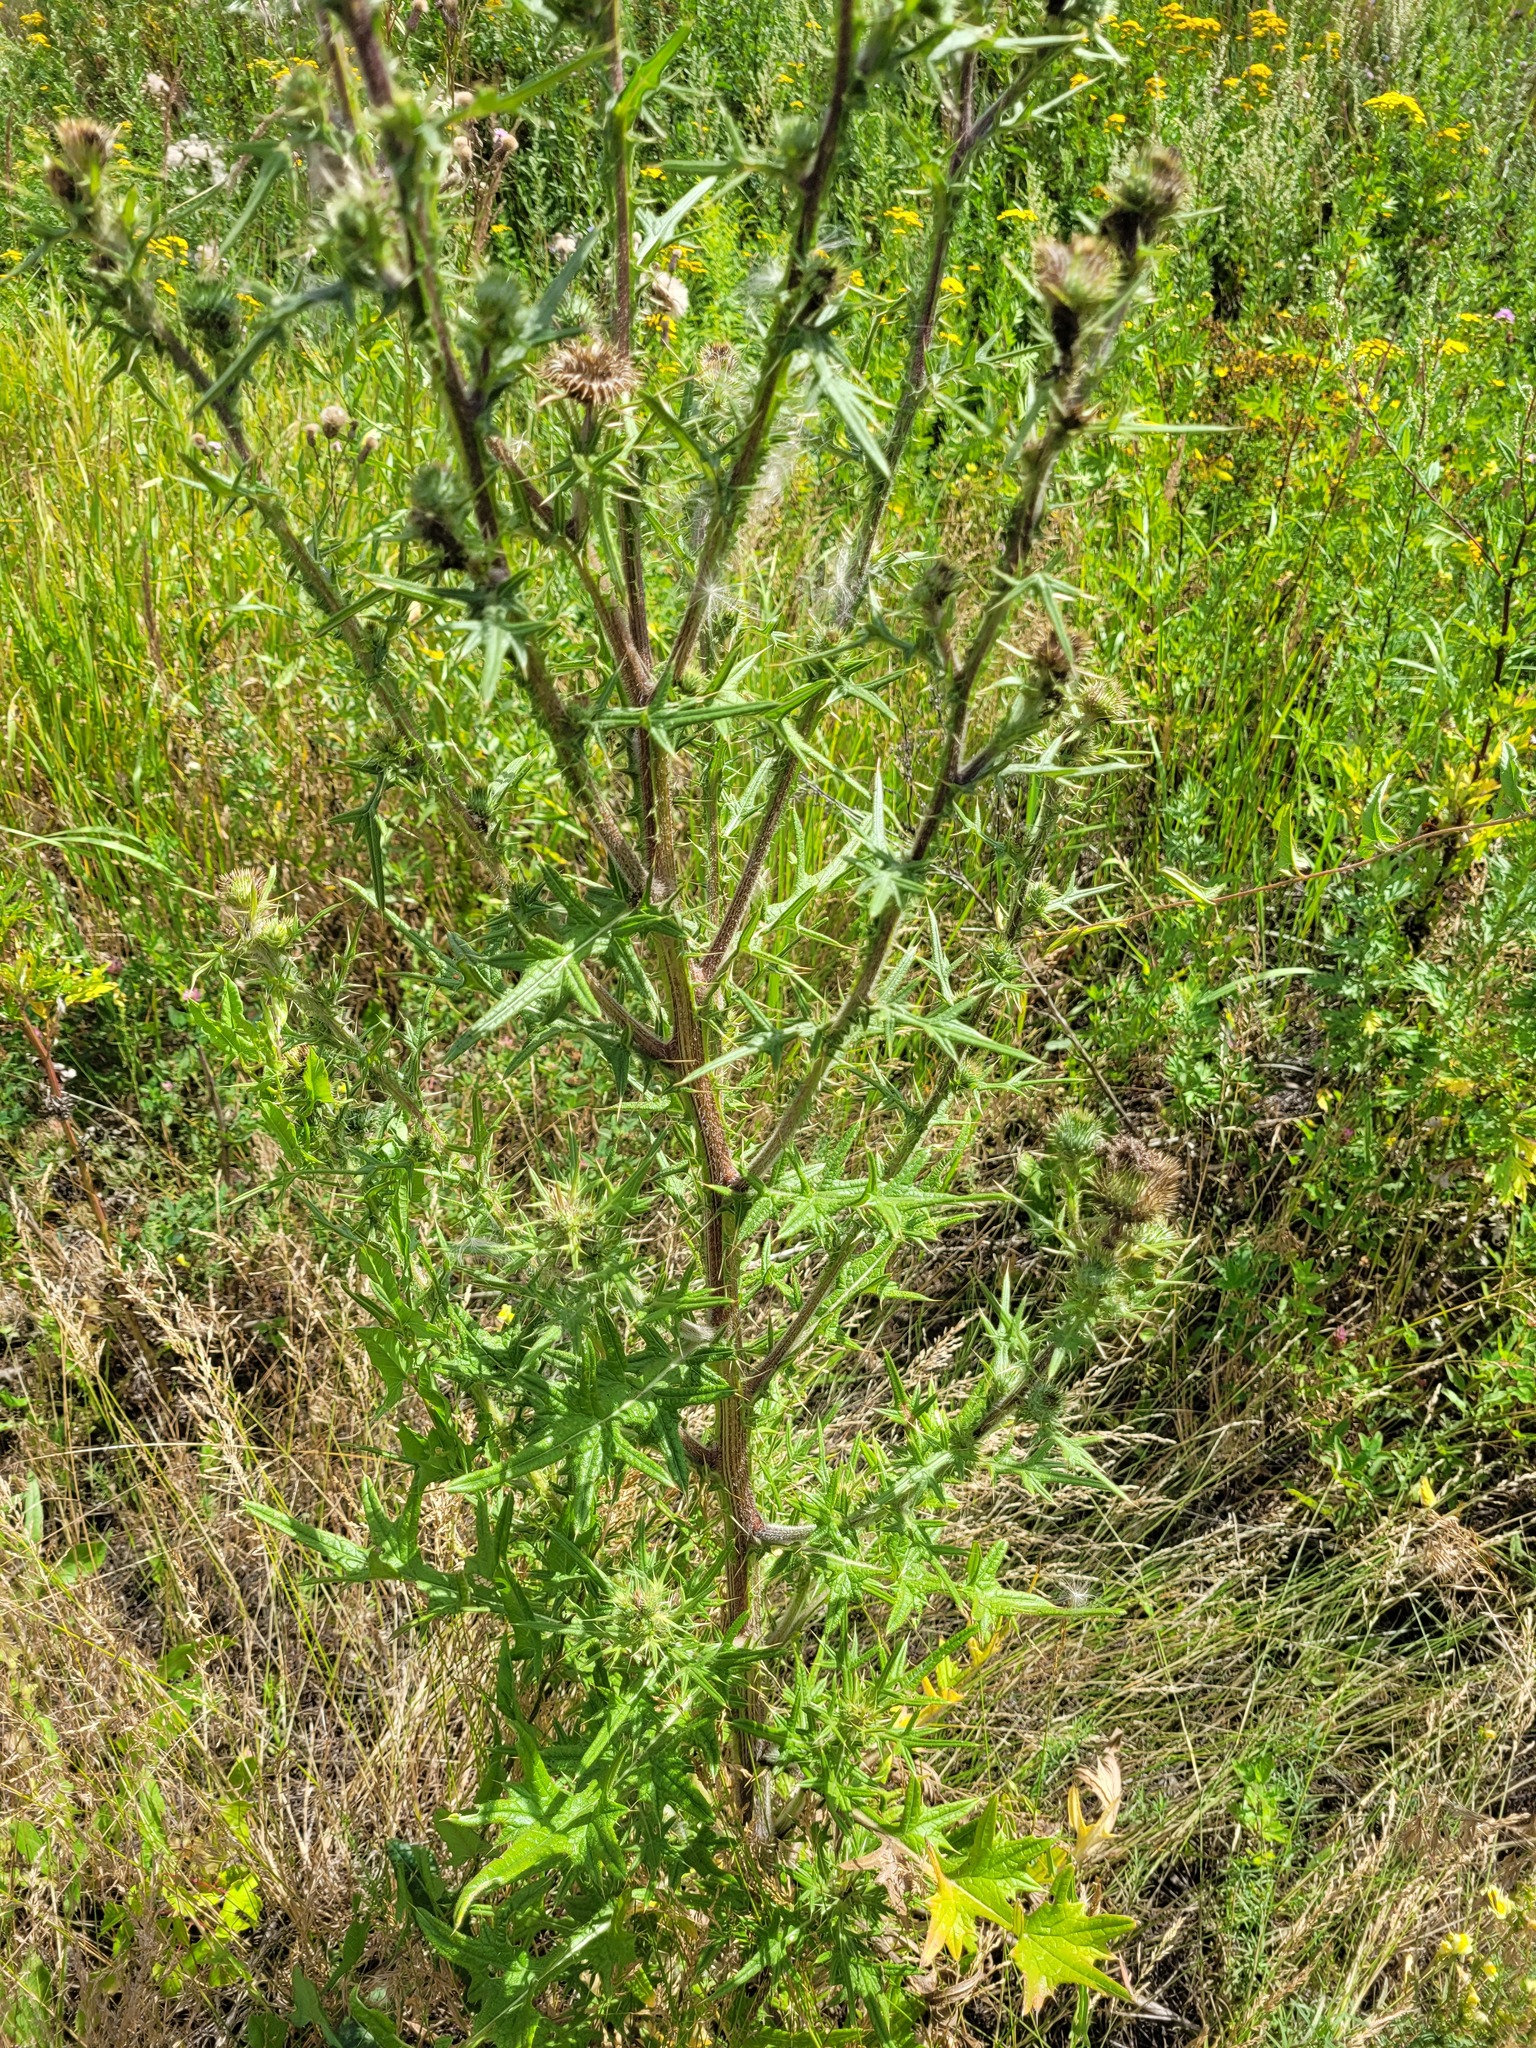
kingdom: Plantae
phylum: Tracheophyta
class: Magnoliopsida
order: Asterales
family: Asteraceae
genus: Cirsium
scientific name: Cirsium vulgare
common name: Bull thistle
